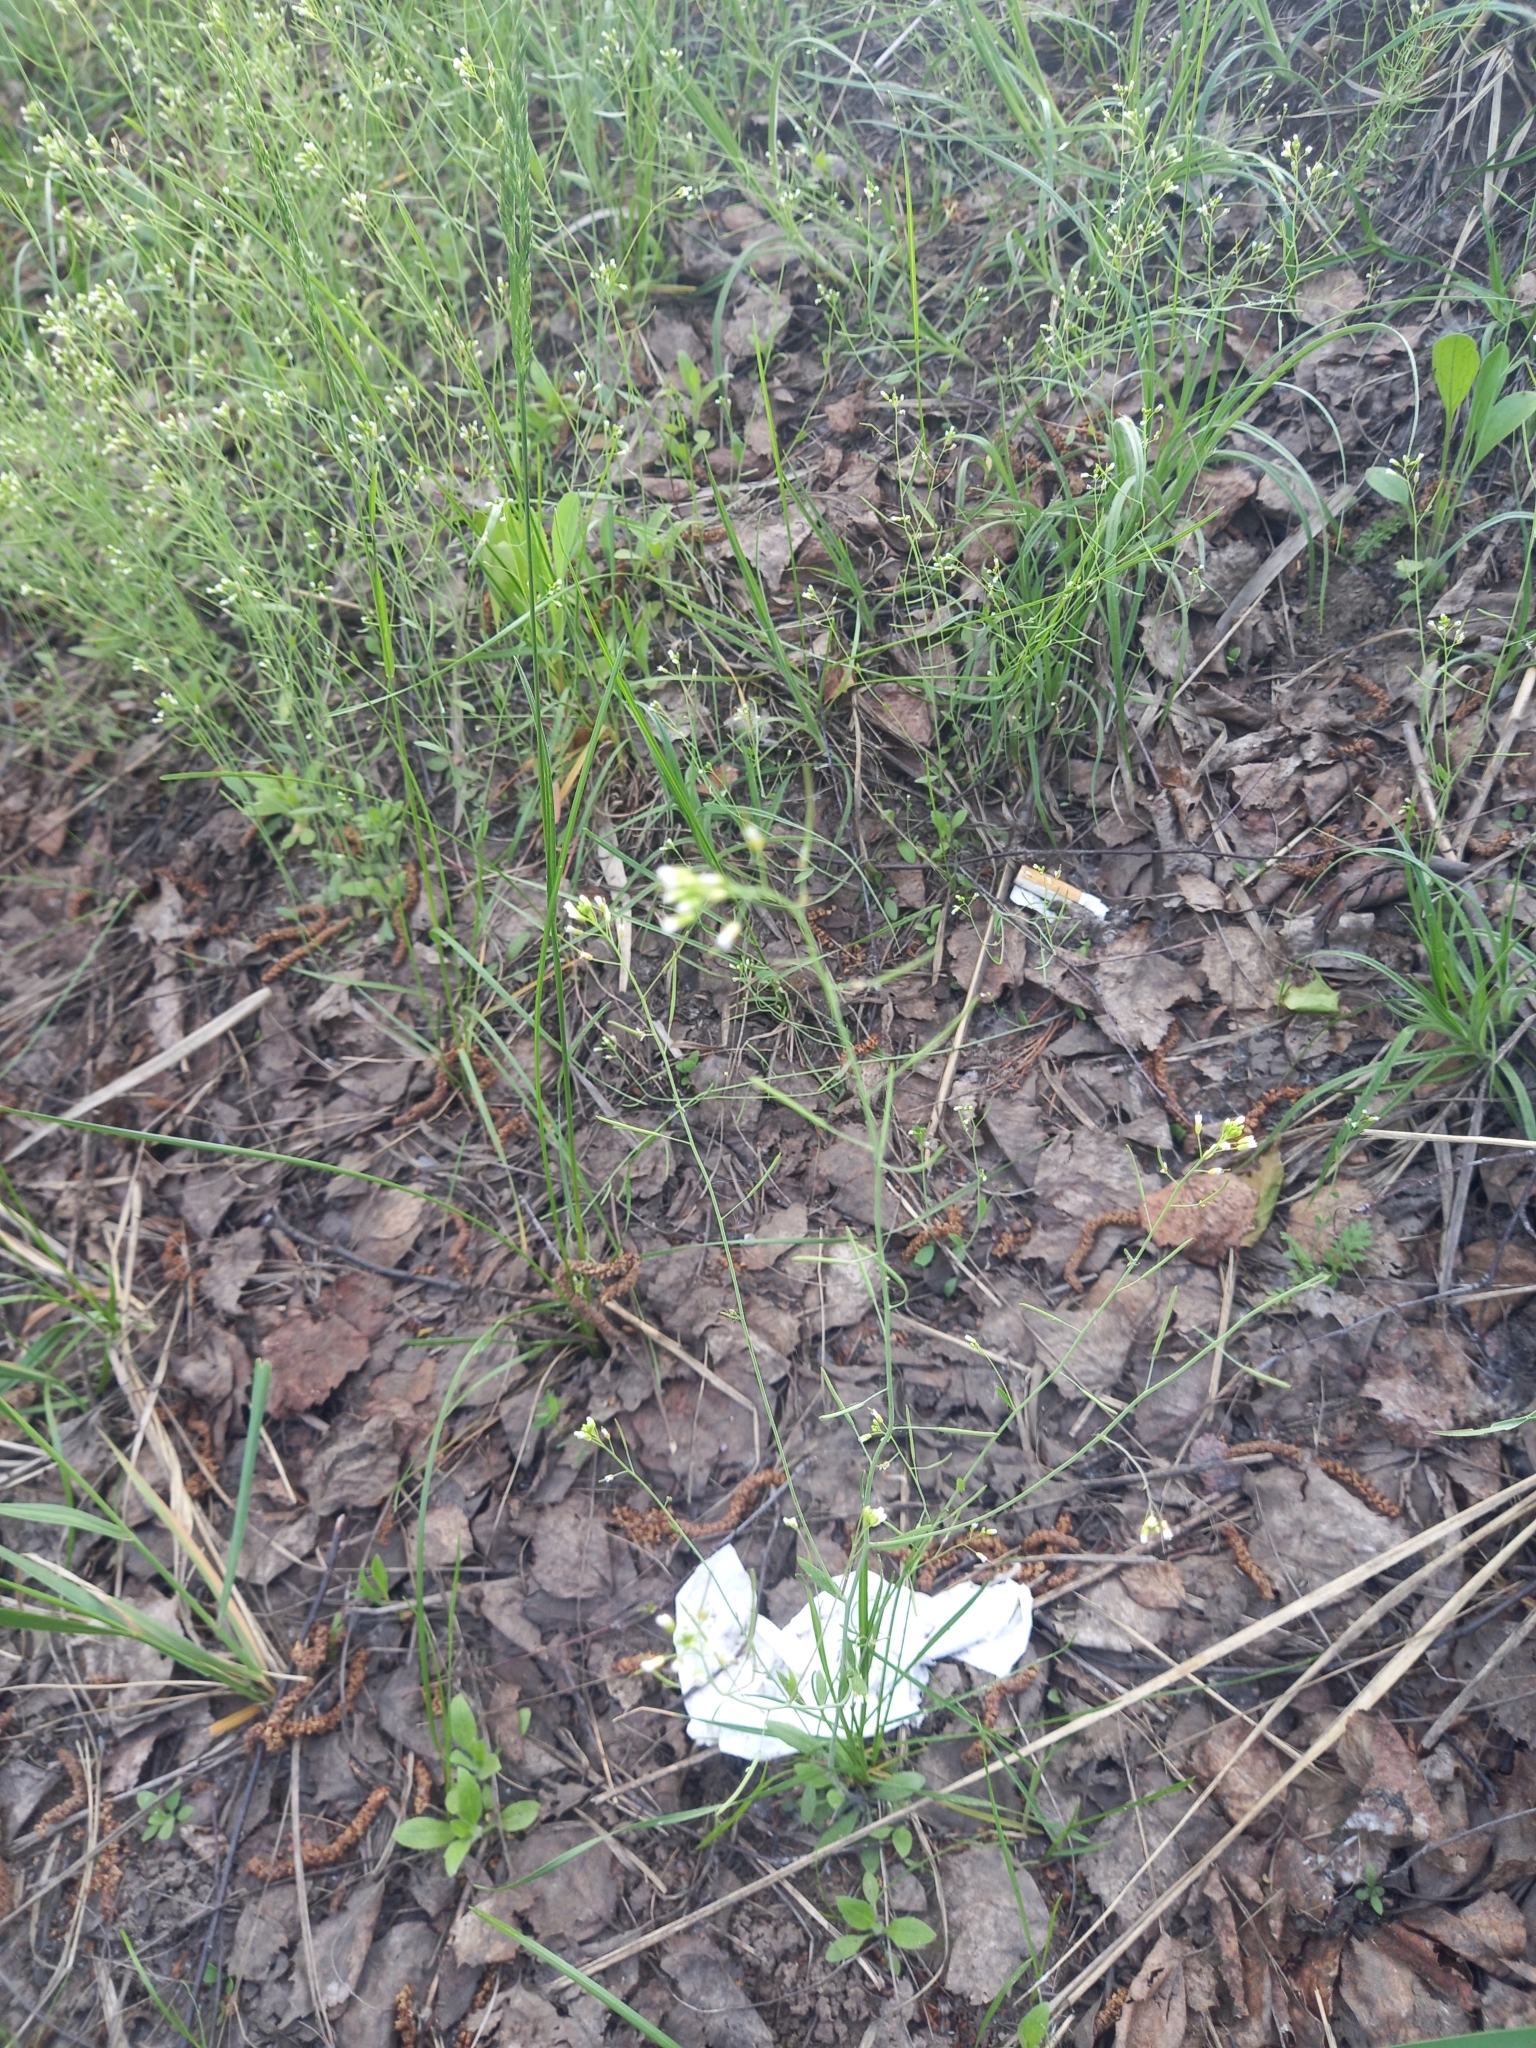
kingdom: Plantae
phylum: Tracheophyta
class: Magnoliopsida
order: Brassicales
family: Brassicaceae
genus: Arabidopsis
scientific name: Arabidopsis thaliana
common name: Thale cress
